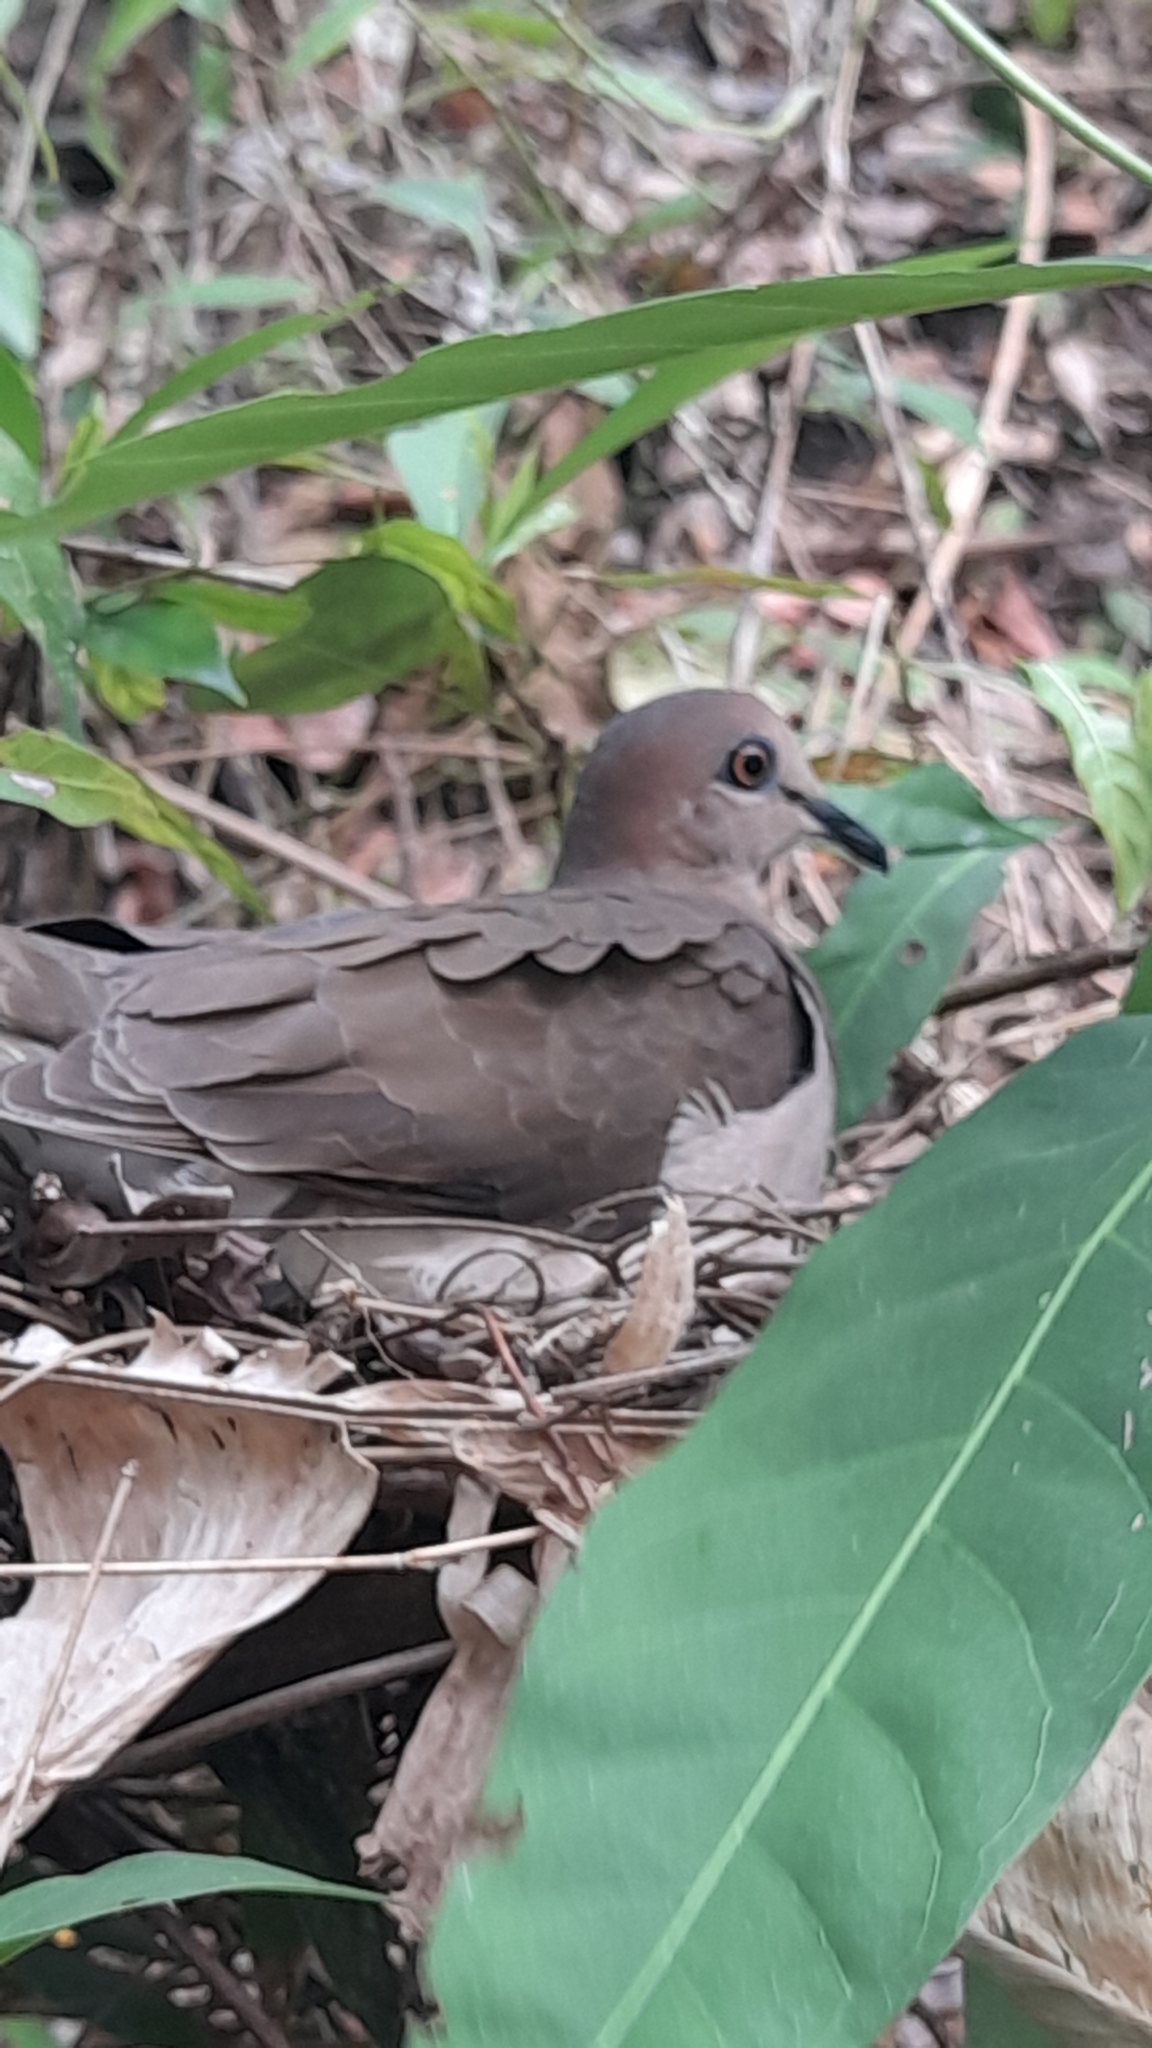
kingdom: Animalia
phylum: Chordata
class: Aves
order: Columbiformes
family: Columbidae
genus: Leptotila
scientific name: Leptotila verreauxi
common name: White-tipped dove
